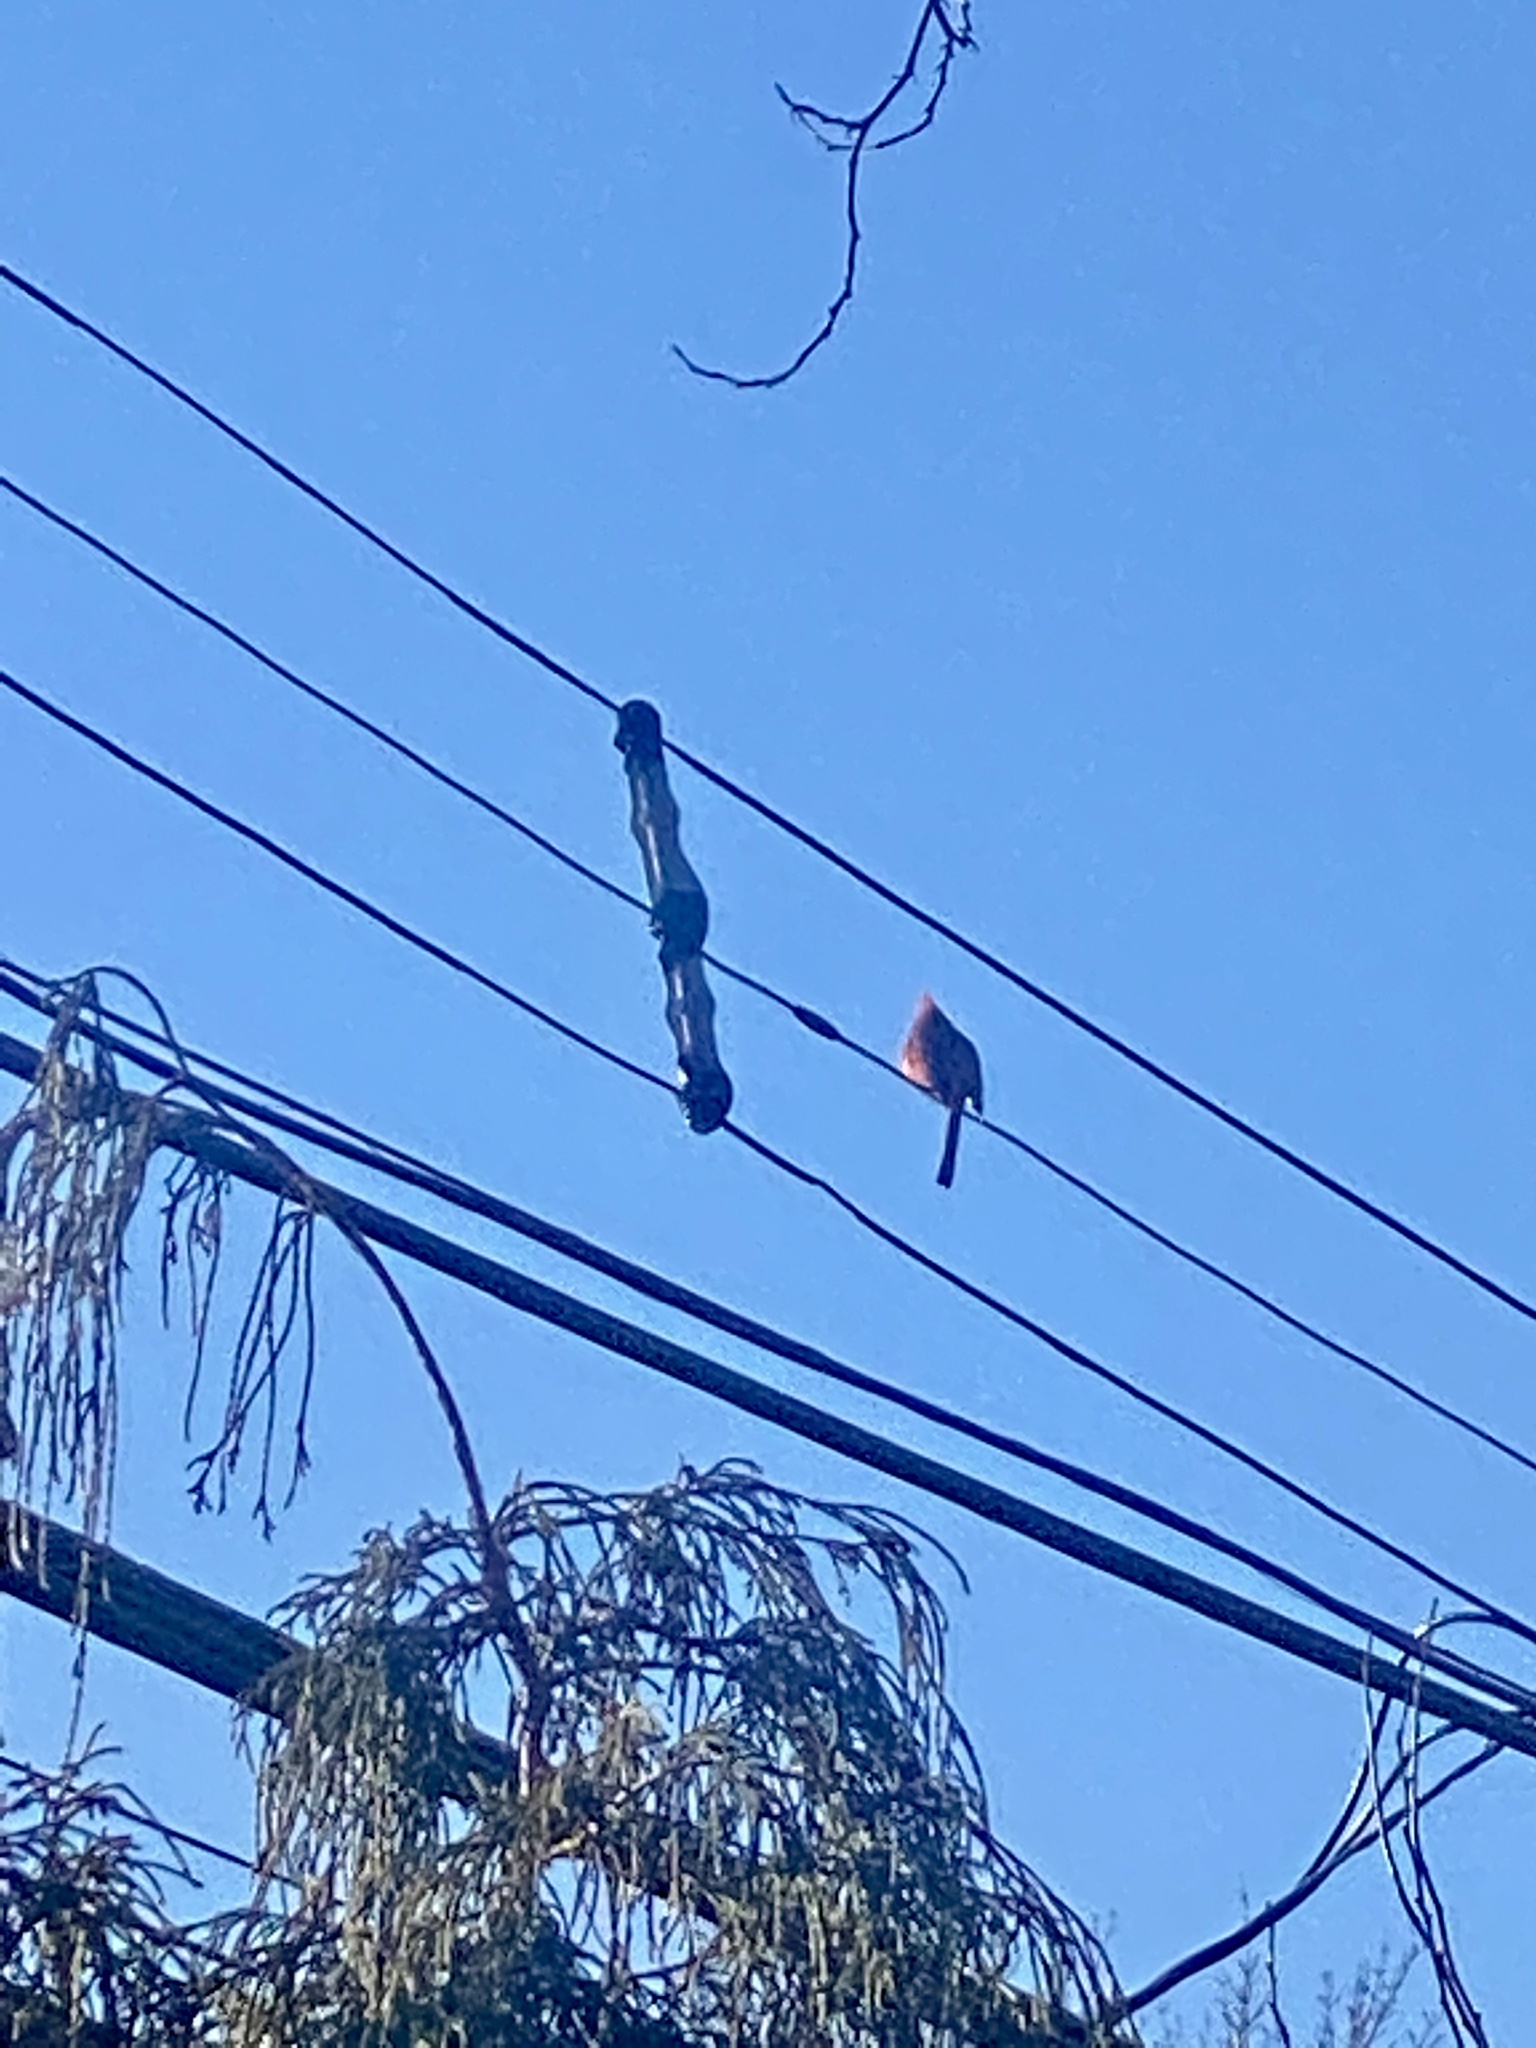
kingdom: Animalia
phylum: Chordata
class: Aves
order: Passeriformes
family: Cardinalidae
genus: Cardinalis
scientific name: Cardinalis cardinalis
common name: Northern cardinal
